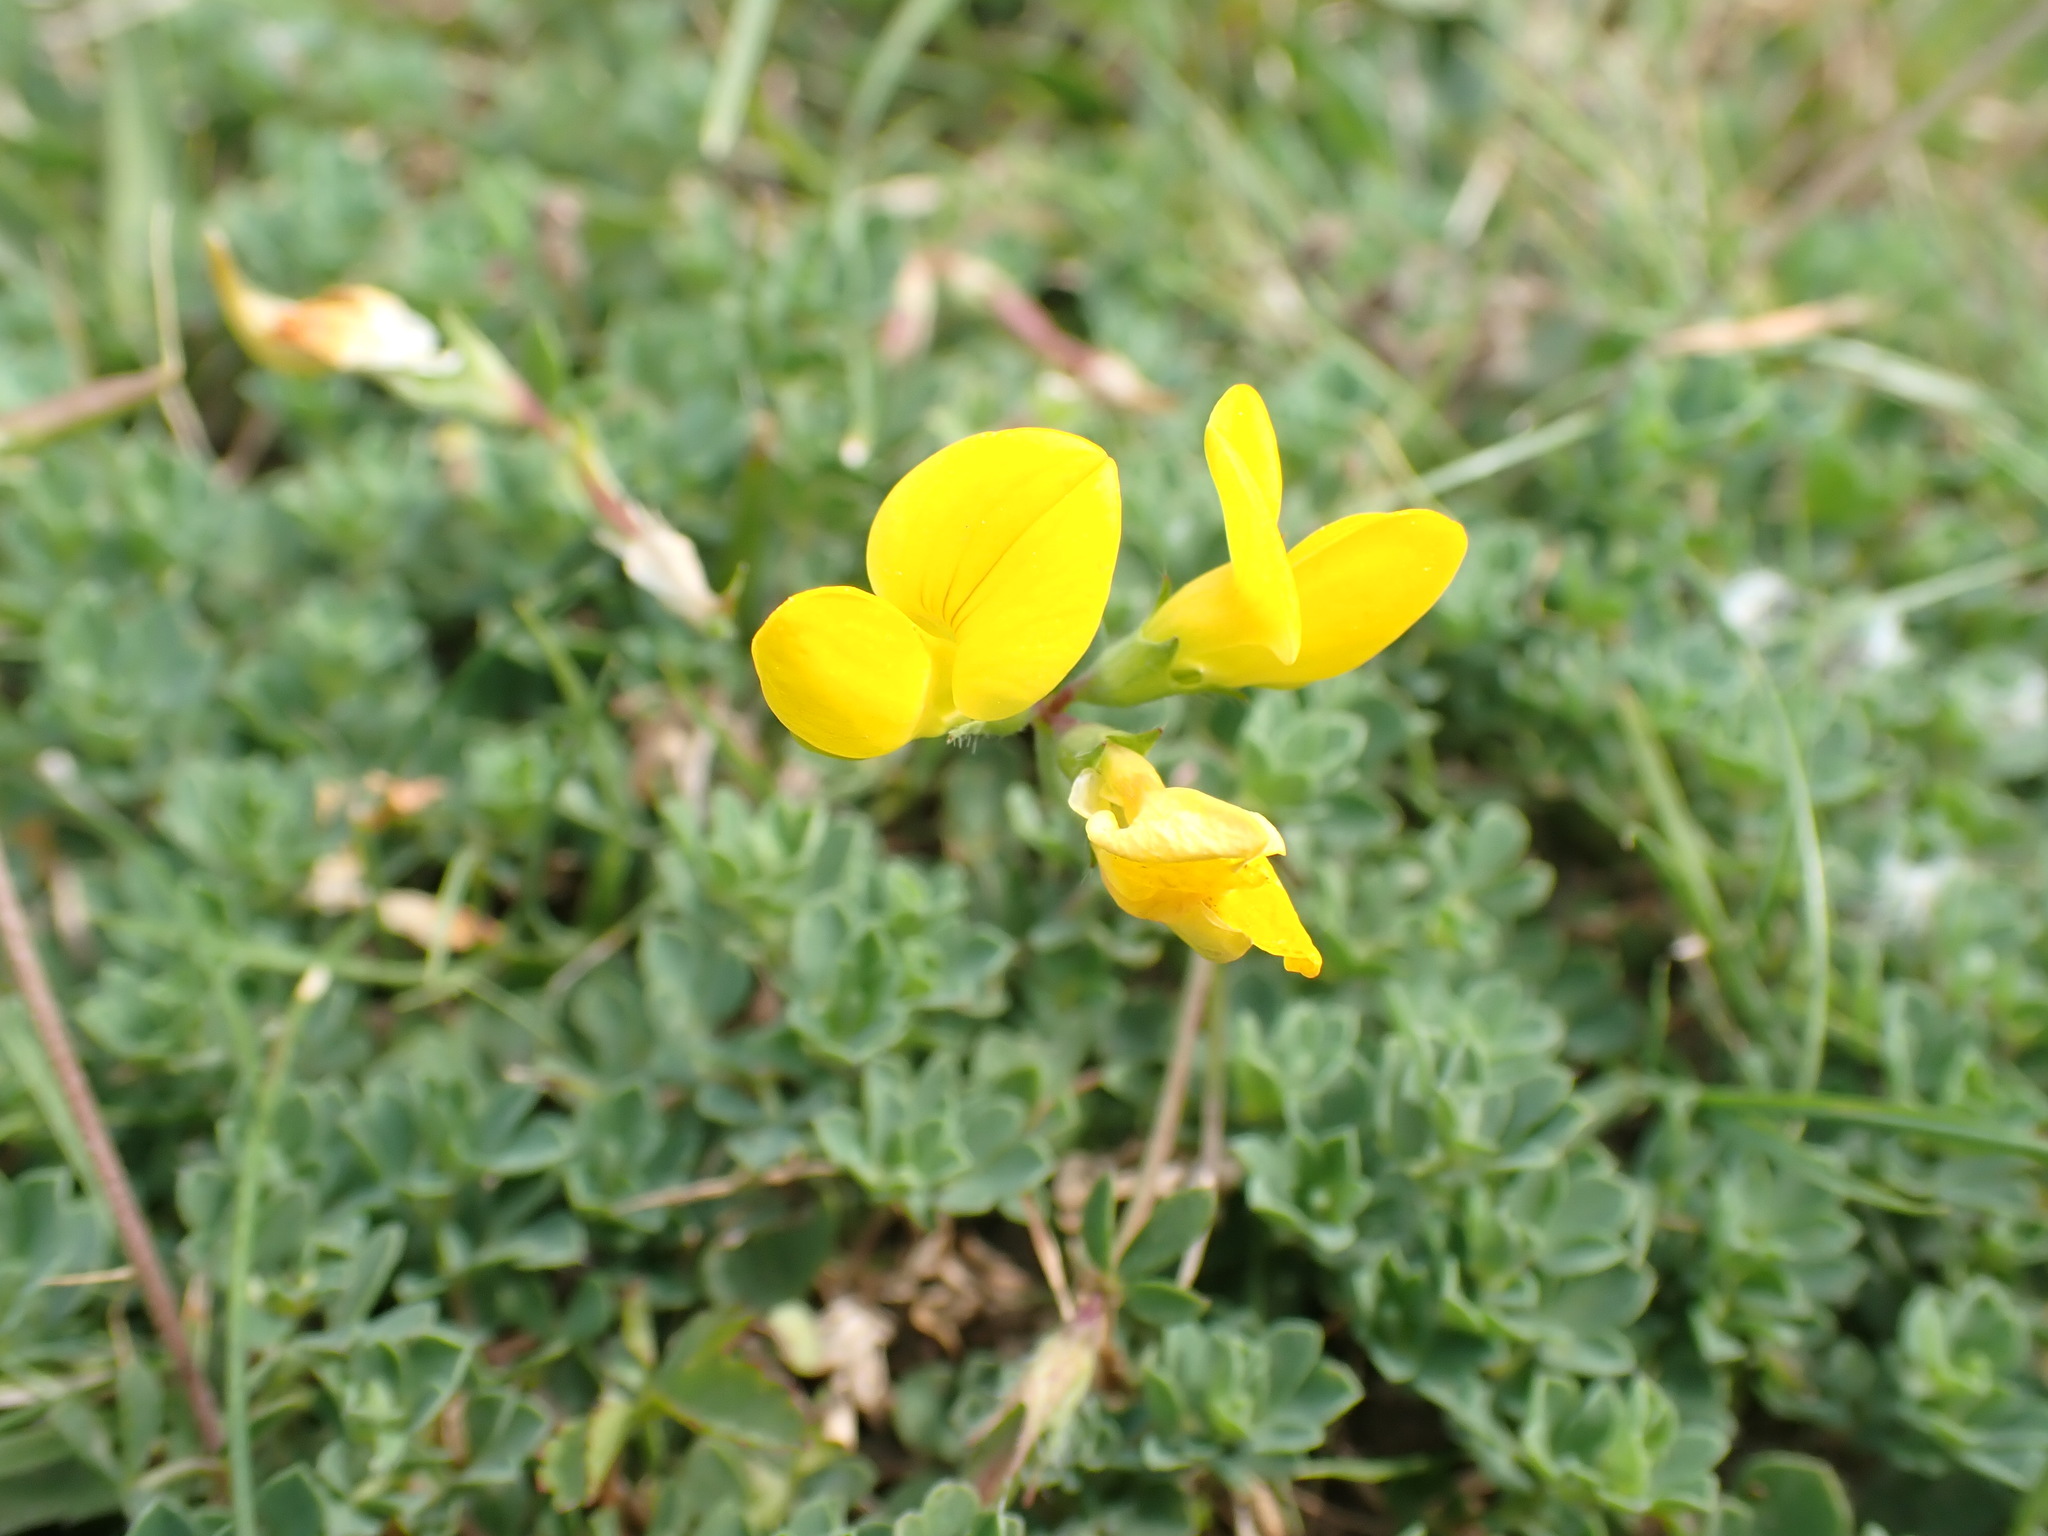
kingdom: Plantae
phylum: Tracheophyta
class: Magnoliopsida
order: Fabales
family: Fabaceae
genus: Lotus
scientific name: Lotus corniculatus
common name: Common bird's-foot-trefoil
